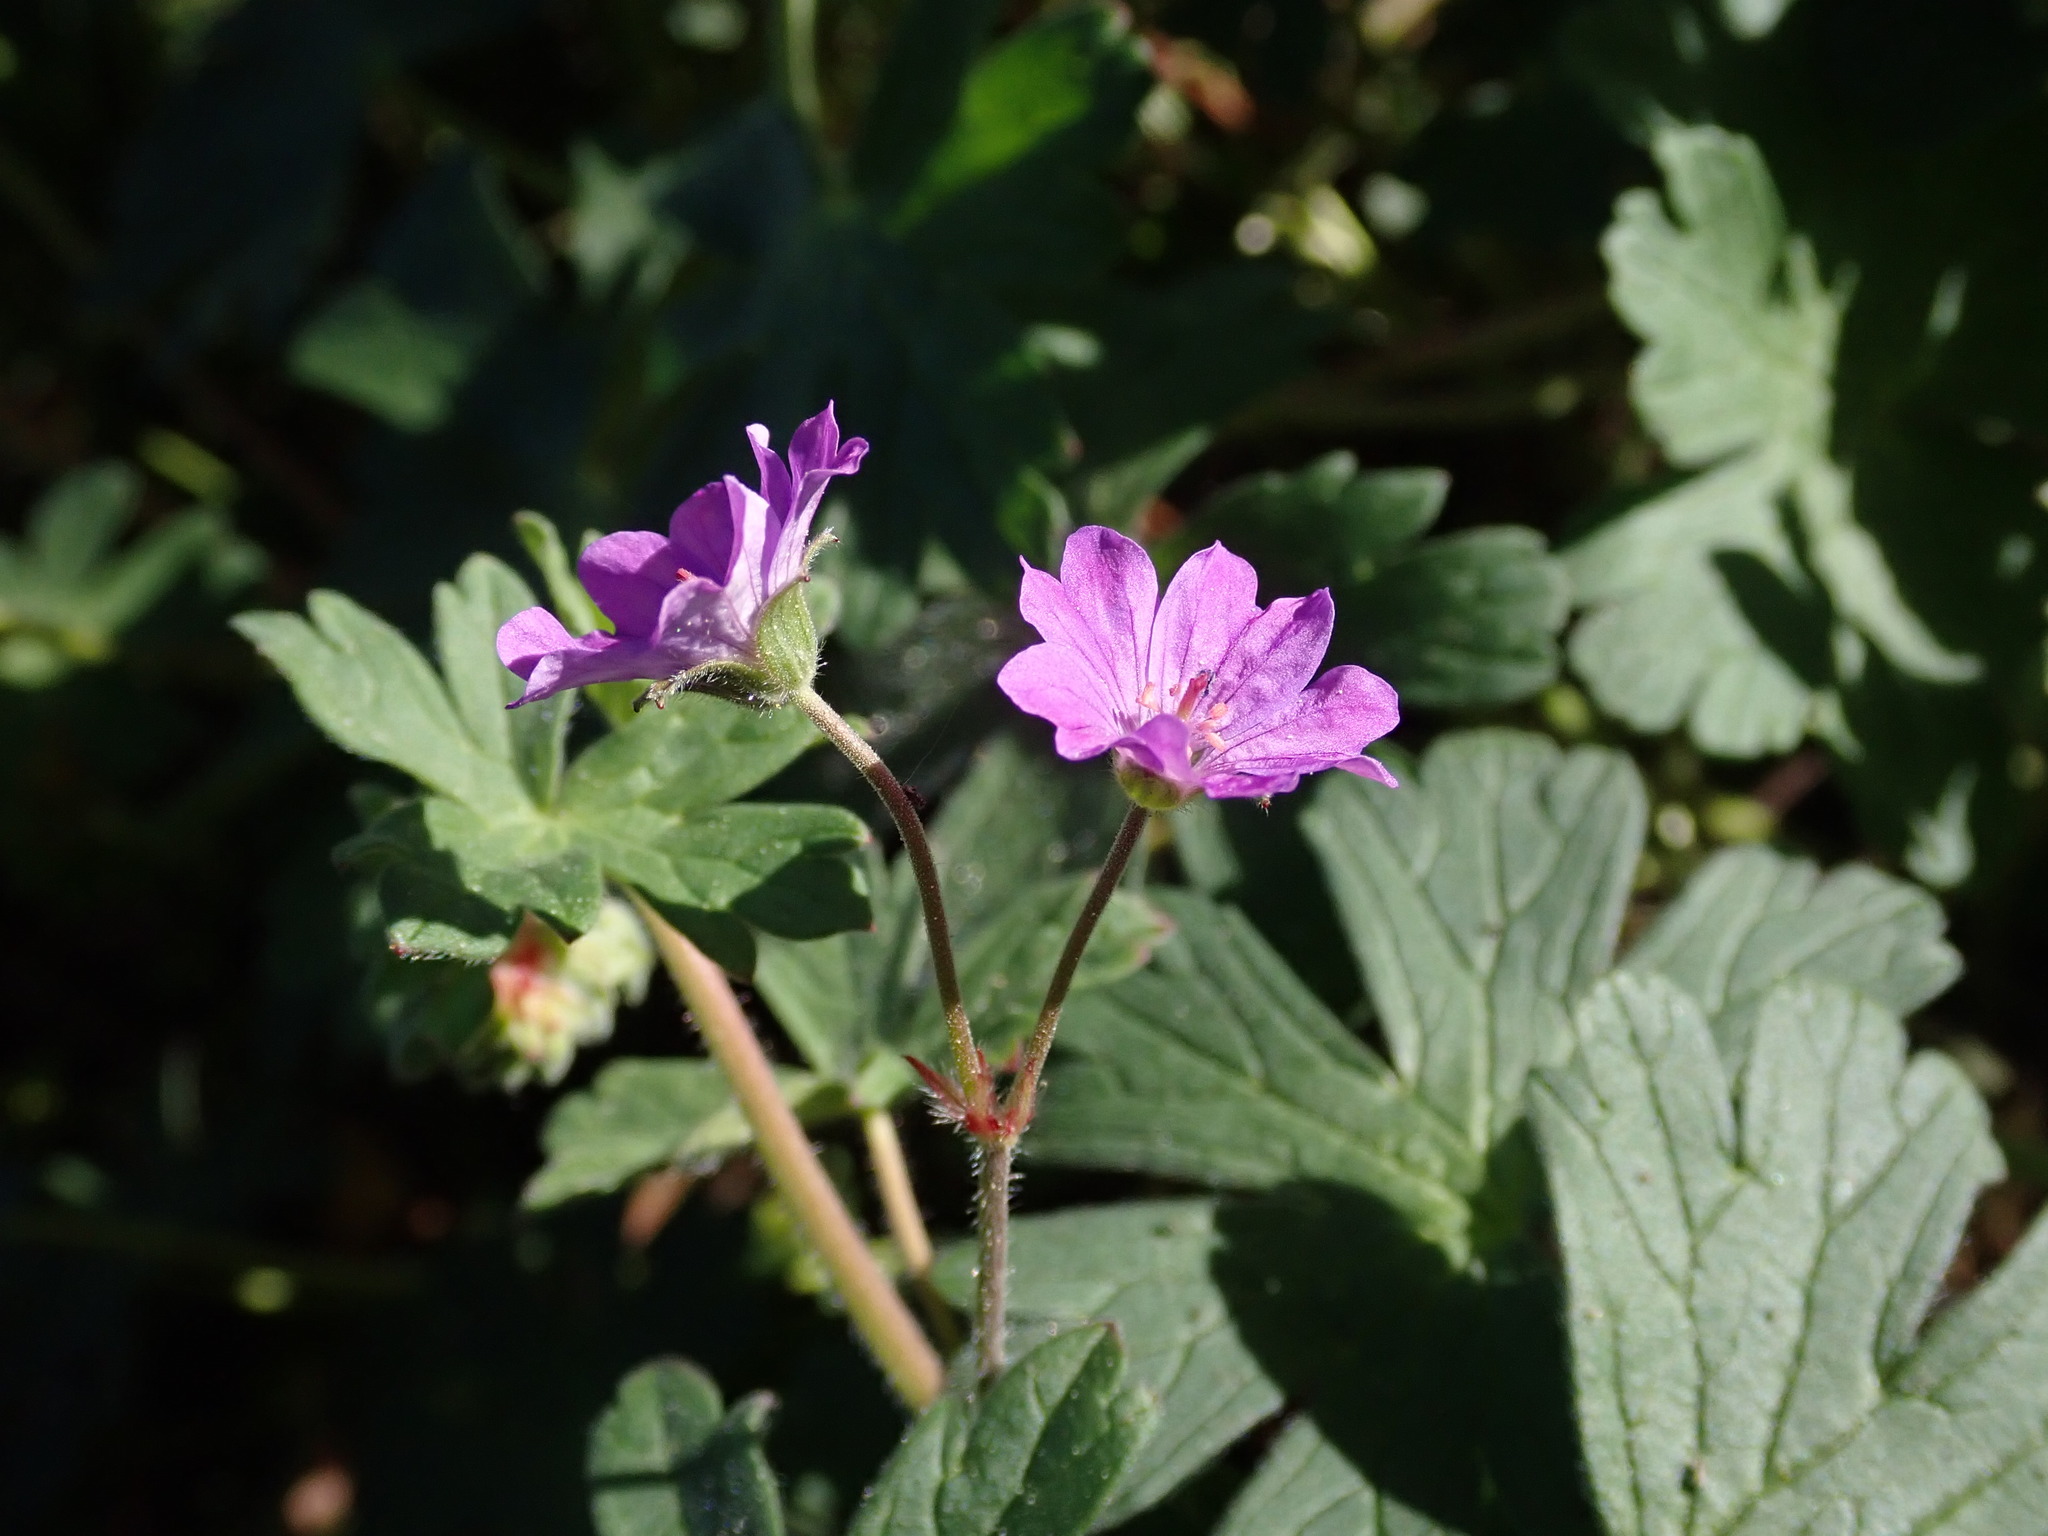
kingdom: Plantae
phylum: Tracheophyta
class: Magnoliopsida
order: Geraniales
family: Geraniaceae
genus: Geranium
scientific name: Geranium pyrenaicum
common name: Hedgerow crane's-bill
